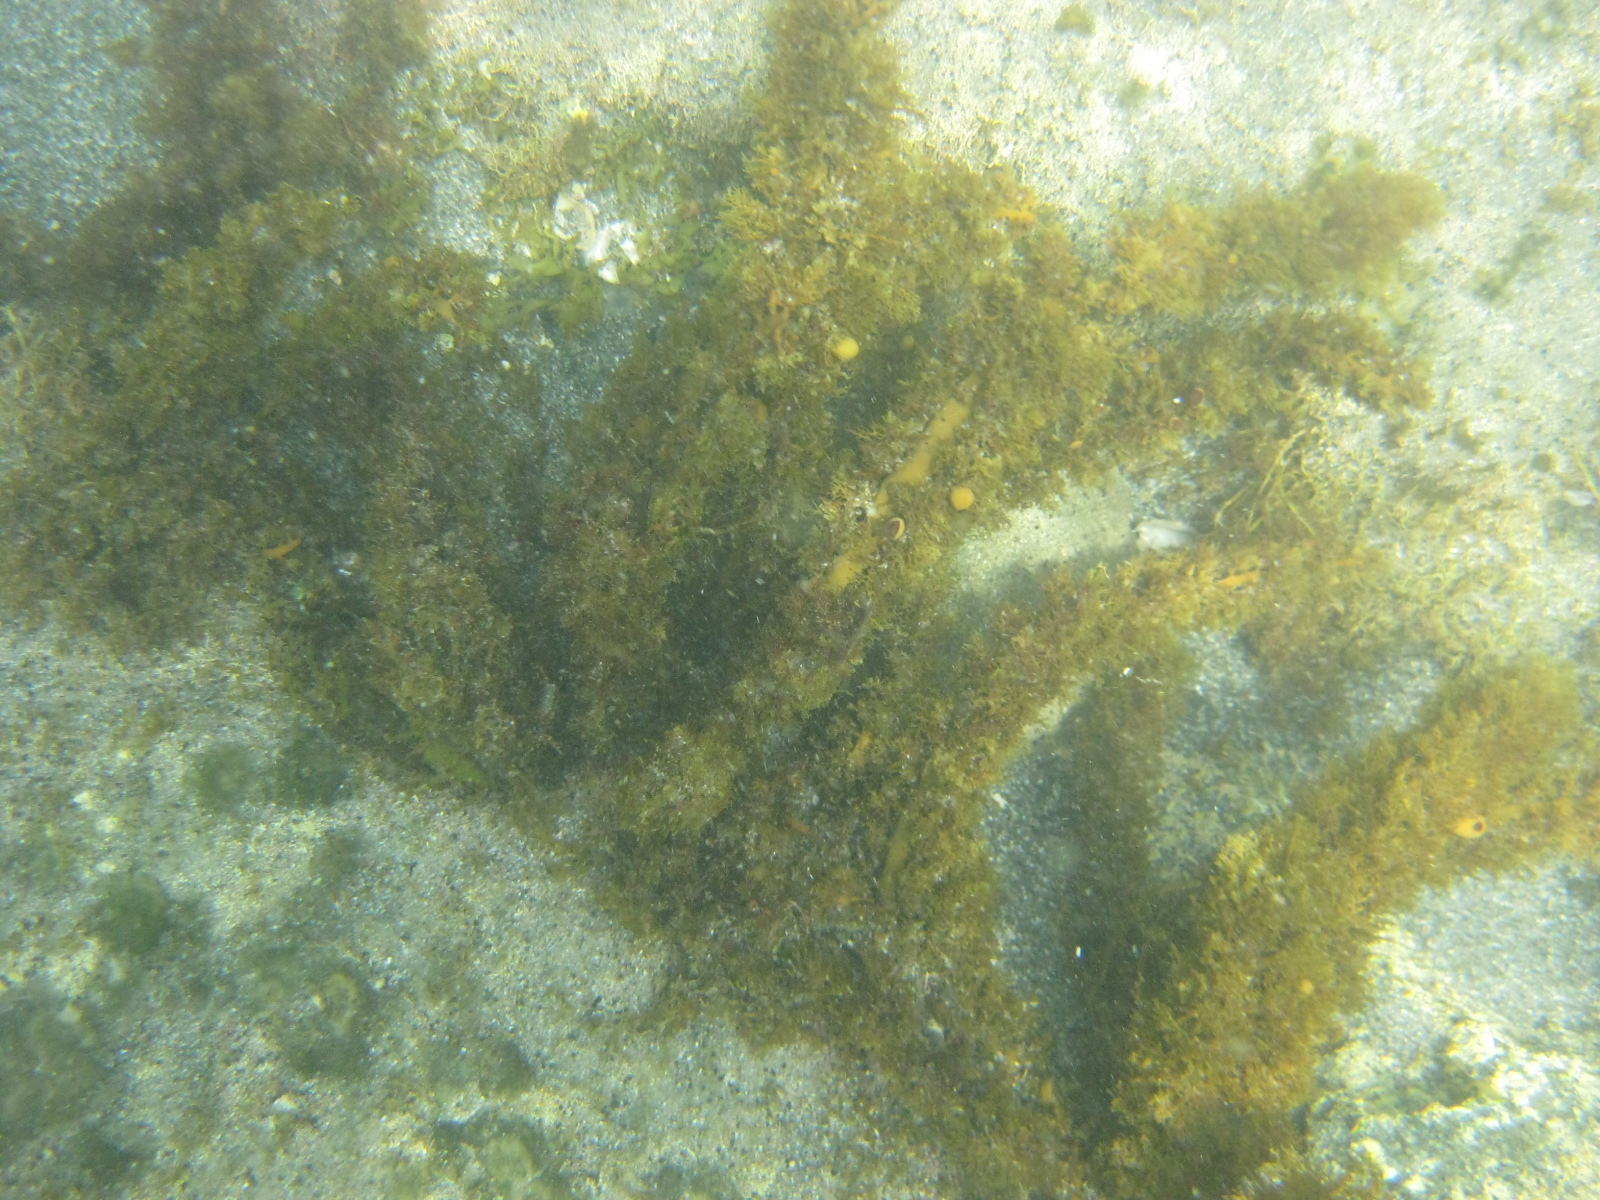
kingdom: Chromista
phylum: Ochrophyta
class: Phaeophyceae
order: Fucales
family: Sargassaceae
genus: Carpophyllum
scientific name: Carpophyllum plumosum
